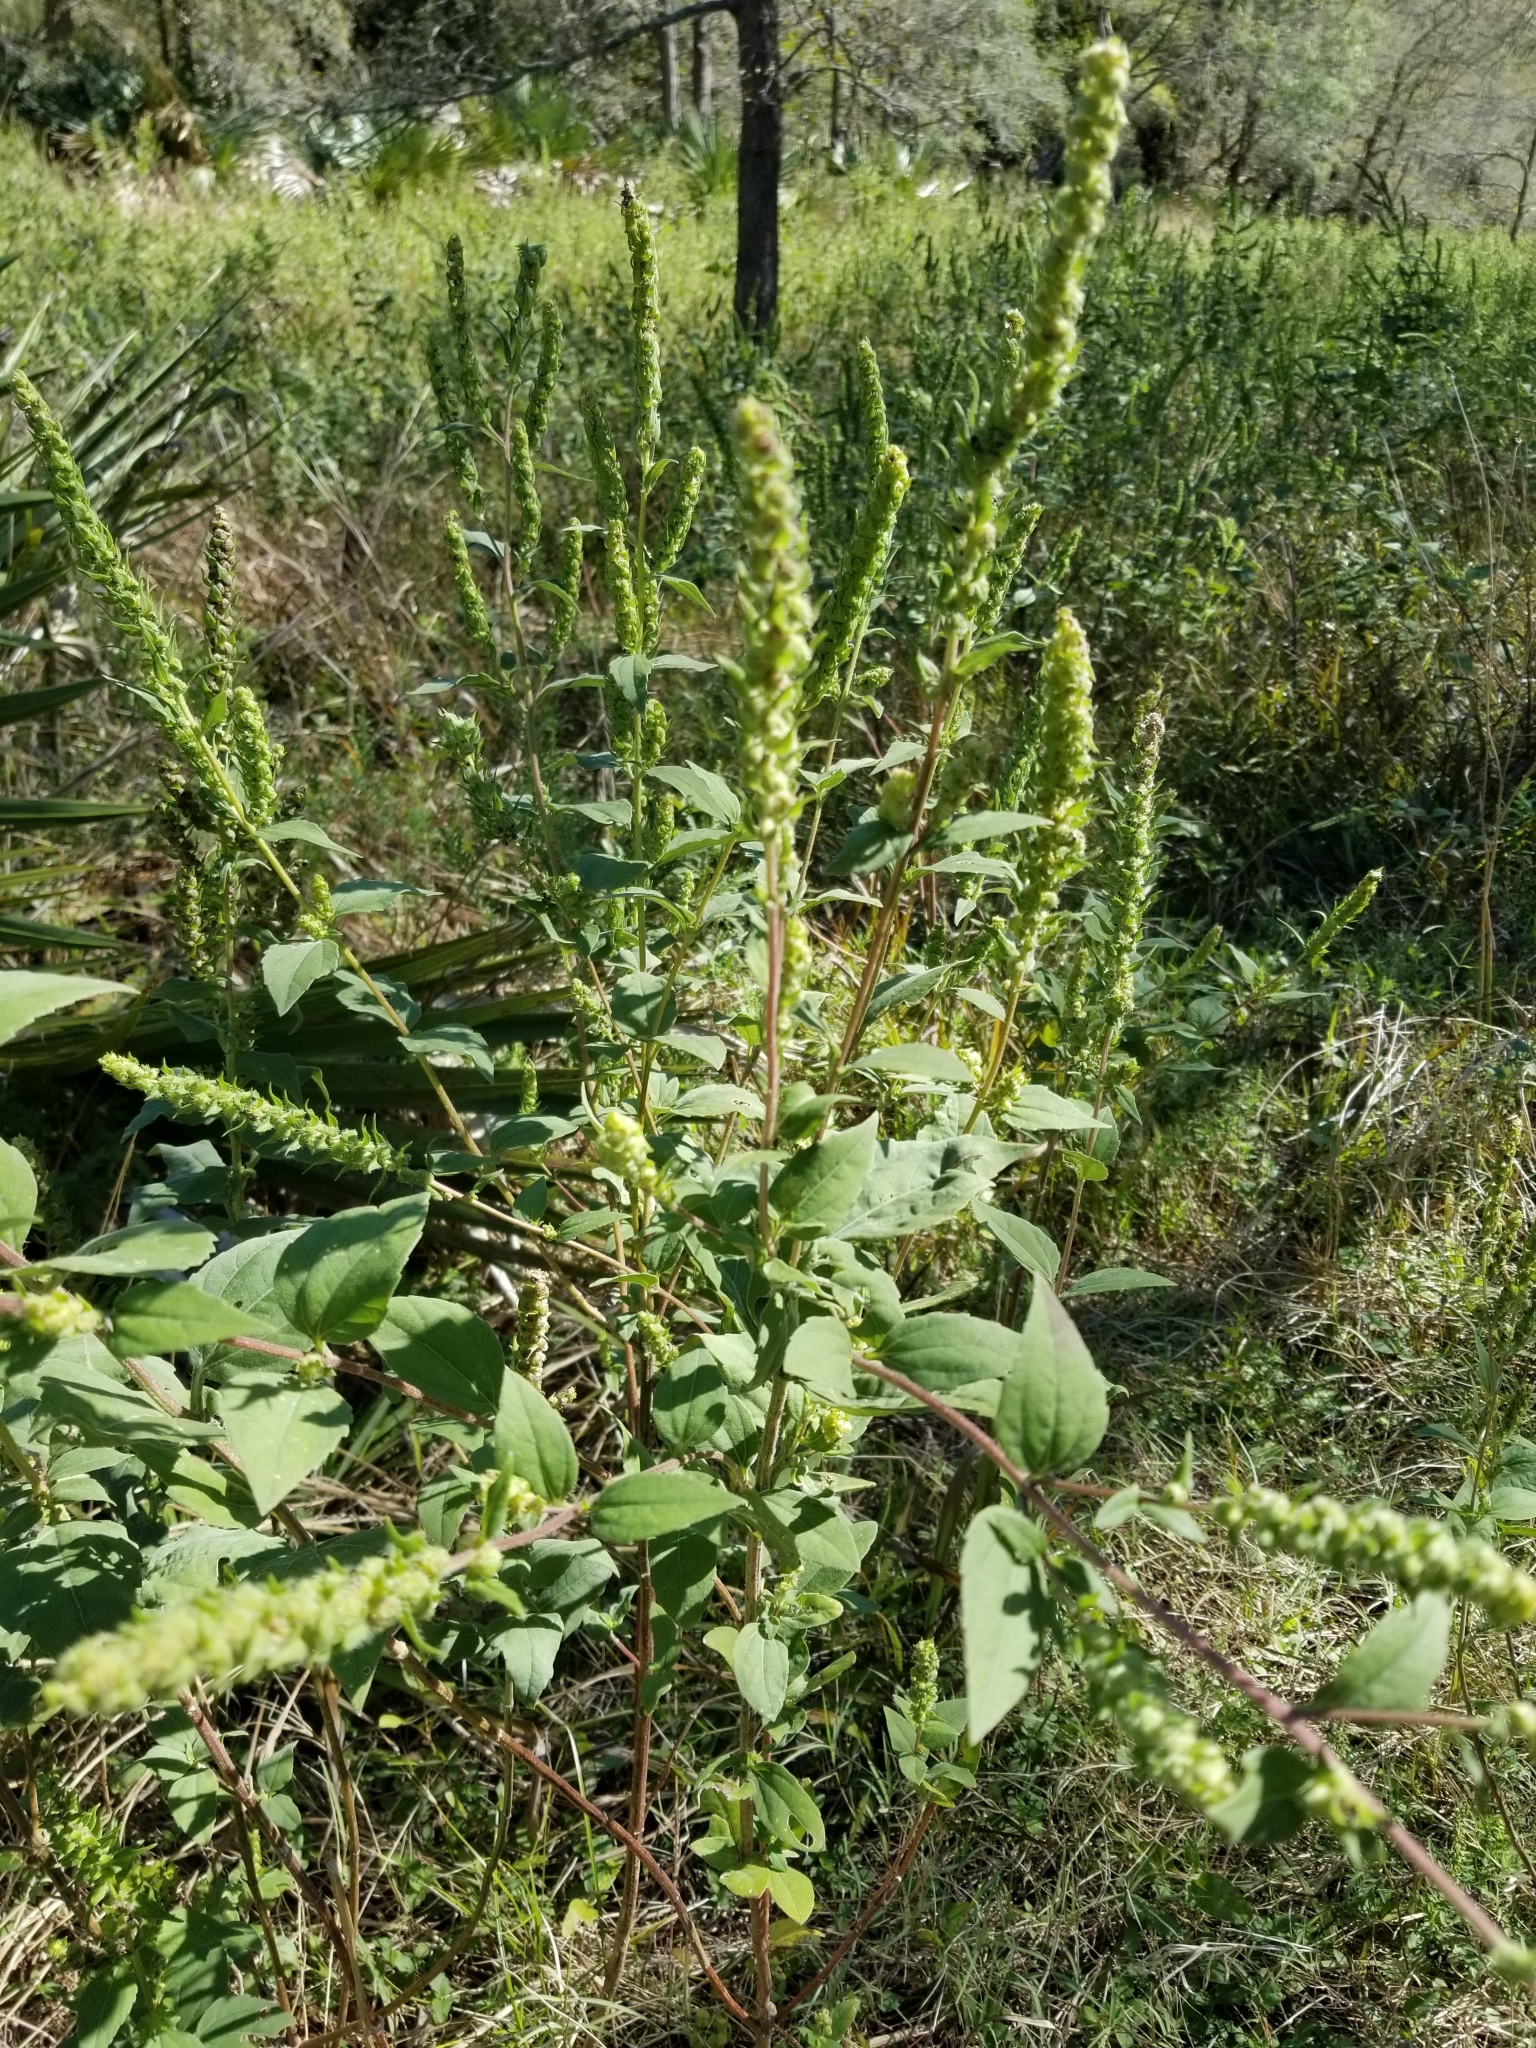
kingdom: Plantae
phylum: Tracheophyta
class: Magnoliopsida
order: Asterales
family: Asteraceae
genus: Iva
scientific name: Iva annua
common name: Marsh-elder
